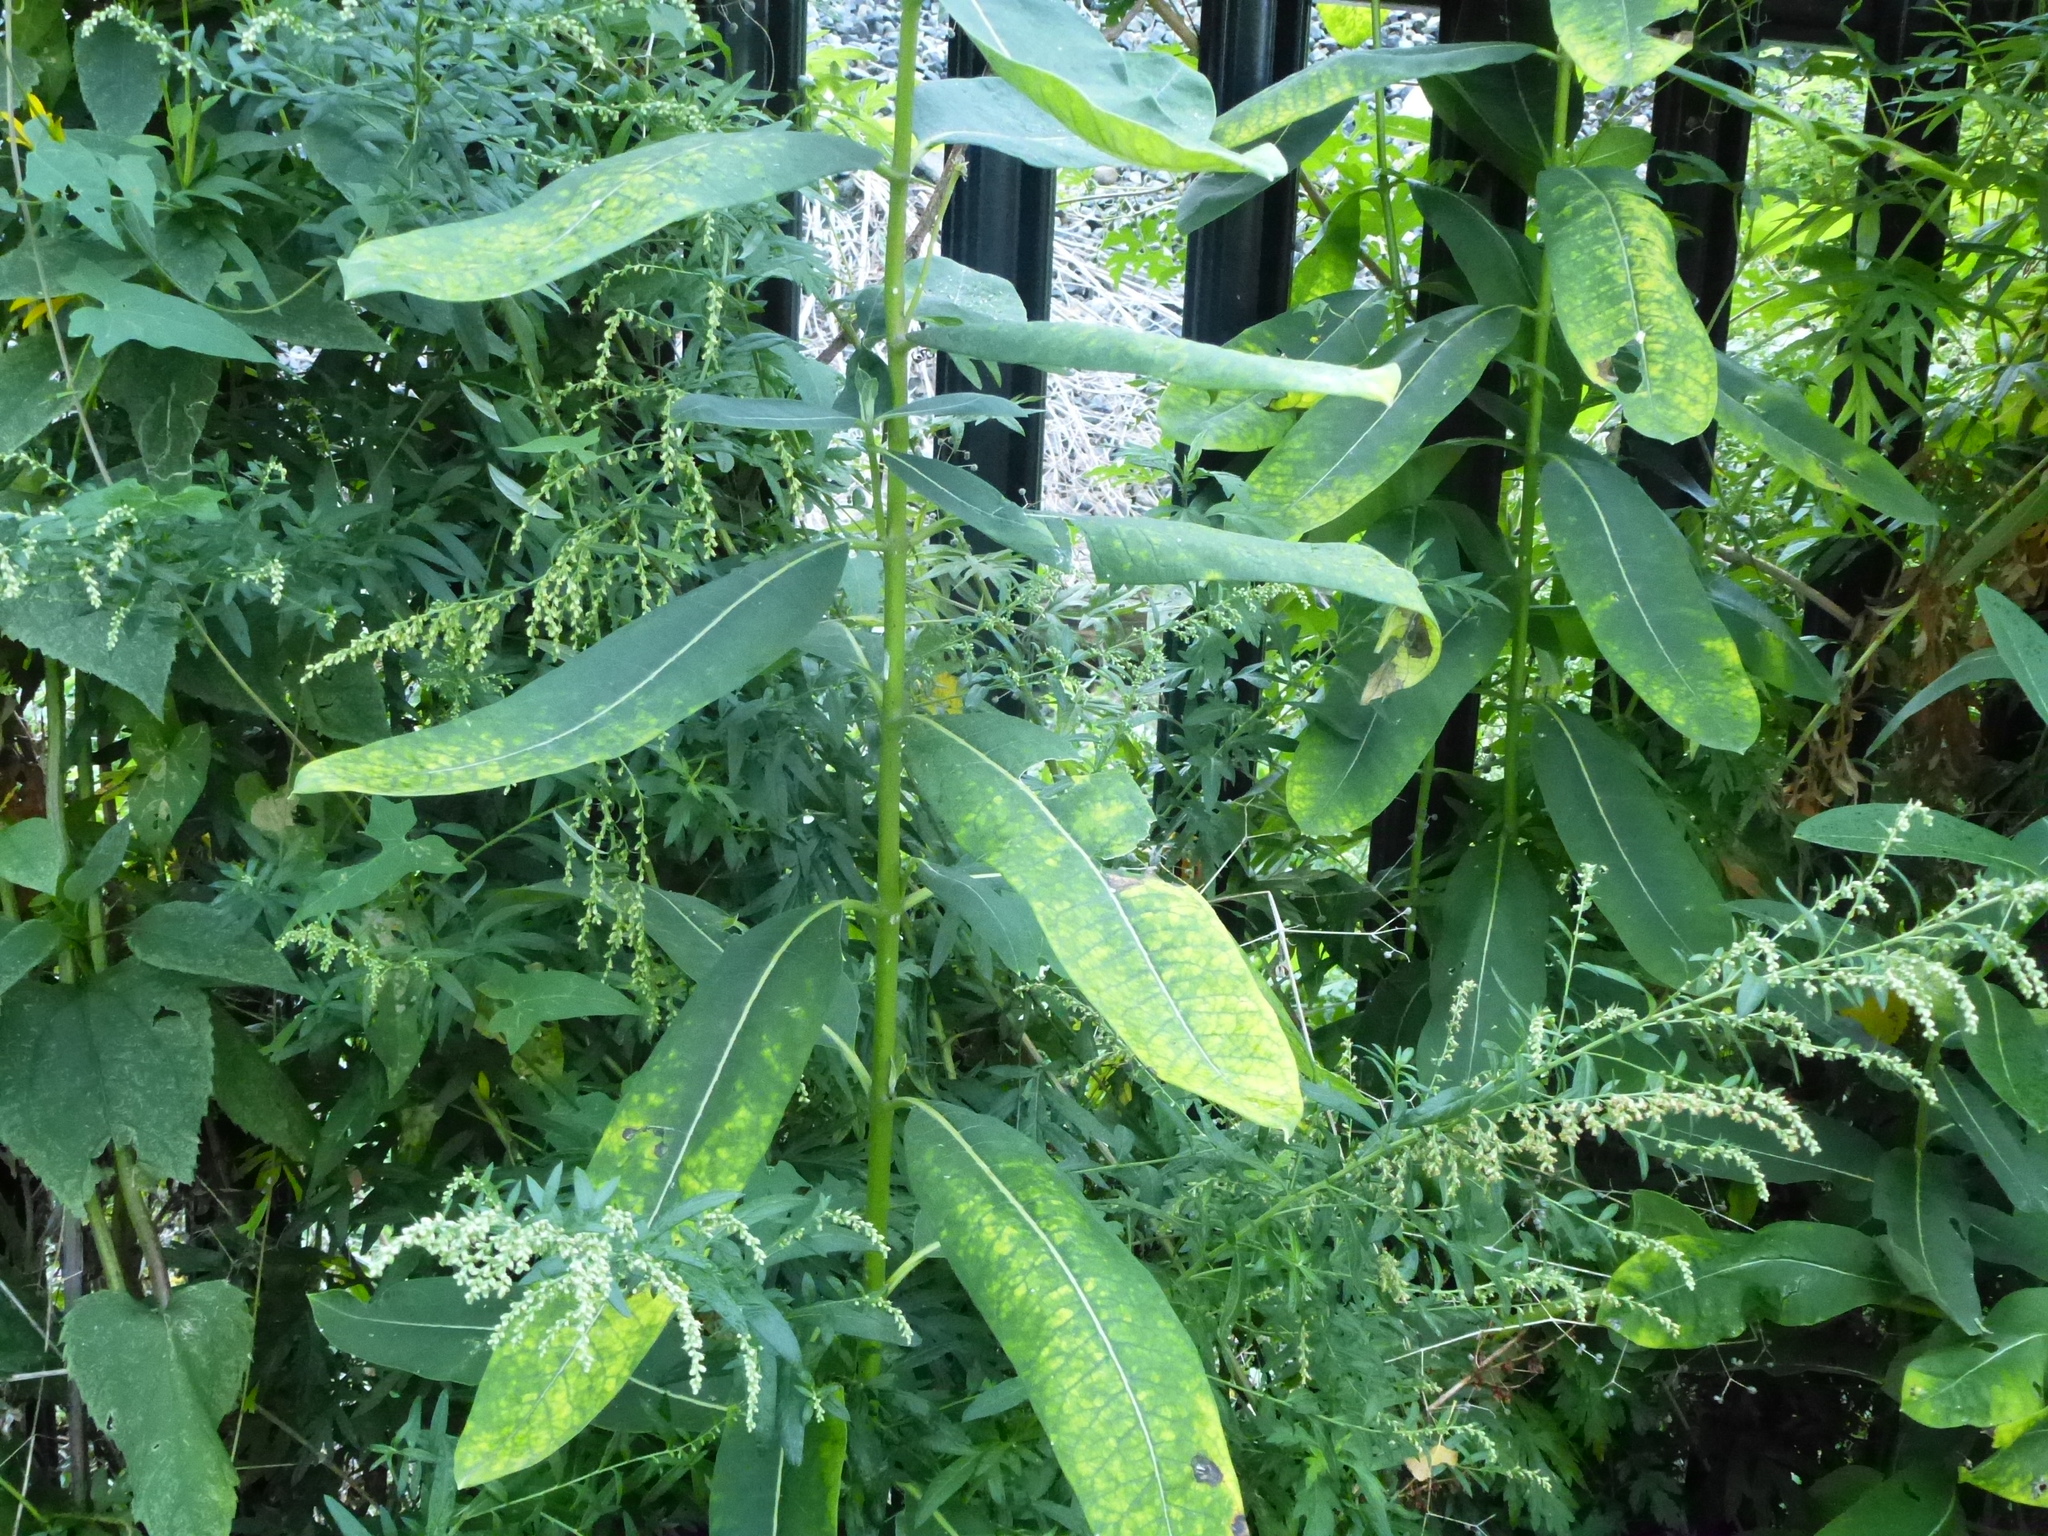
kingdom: Plantae
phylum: Tracheophyta
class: Magnoliopsida
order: Gentianales
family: Apocynaceae
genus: Asclepias
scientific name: Asclepias syriaca
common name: Common milkweed
